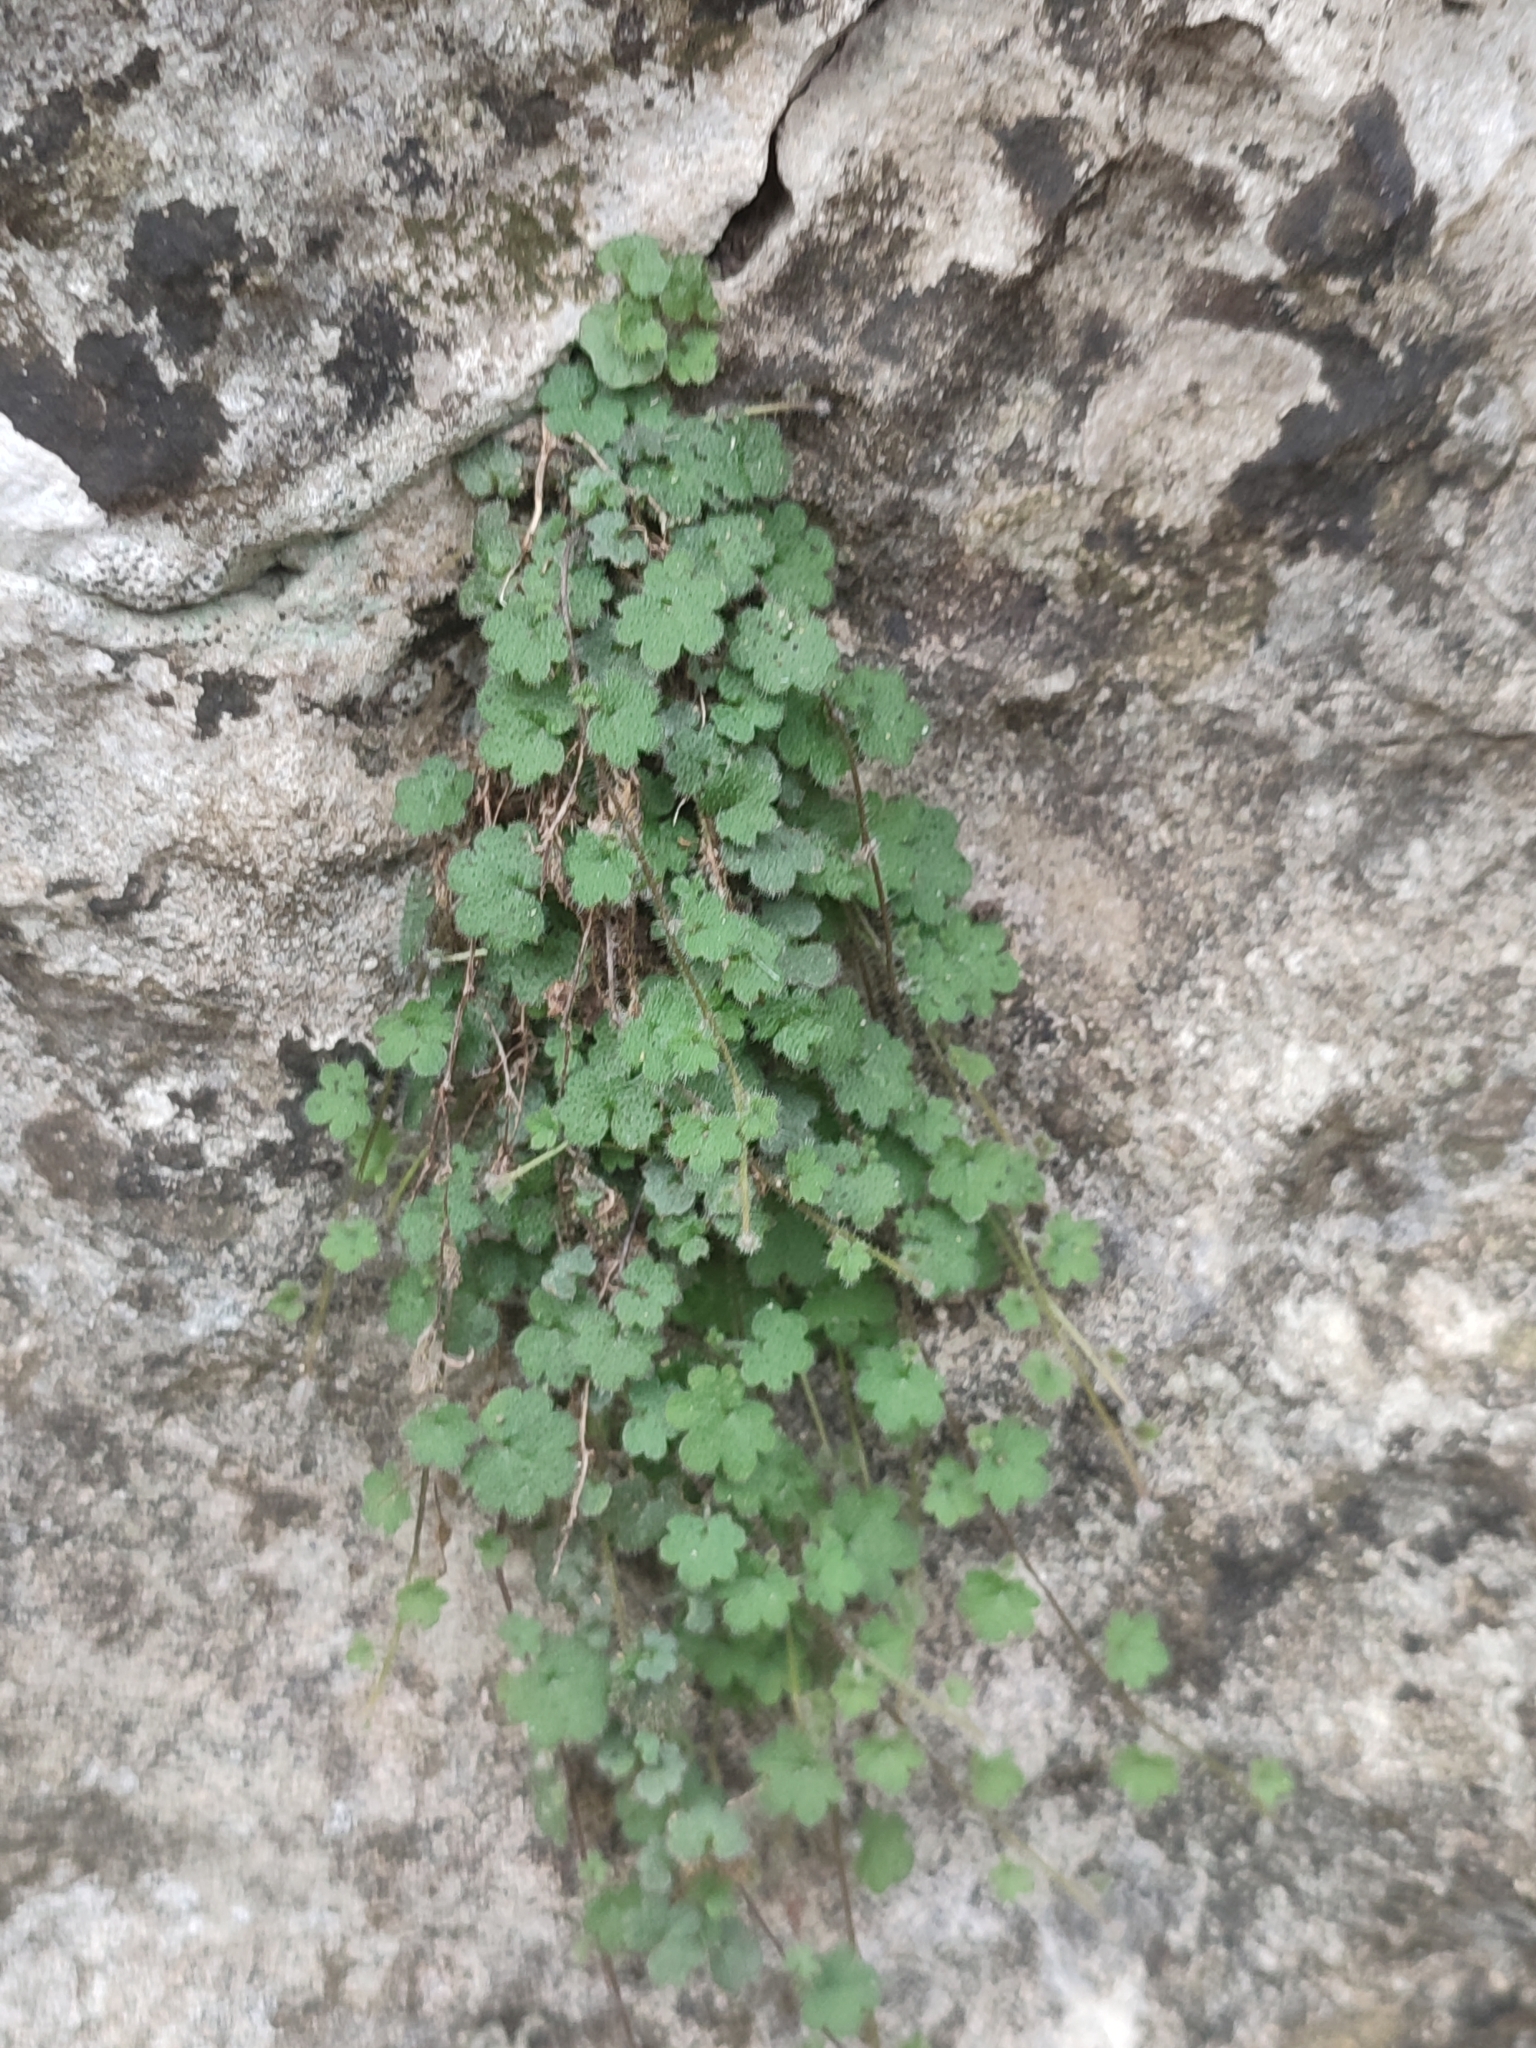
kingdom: Plantae
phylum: Tracheophyta
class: Magnoliopsida
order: Lamiales
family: Plantaginaceae
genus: Sibthorpia
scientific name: Sibthorpia africana
